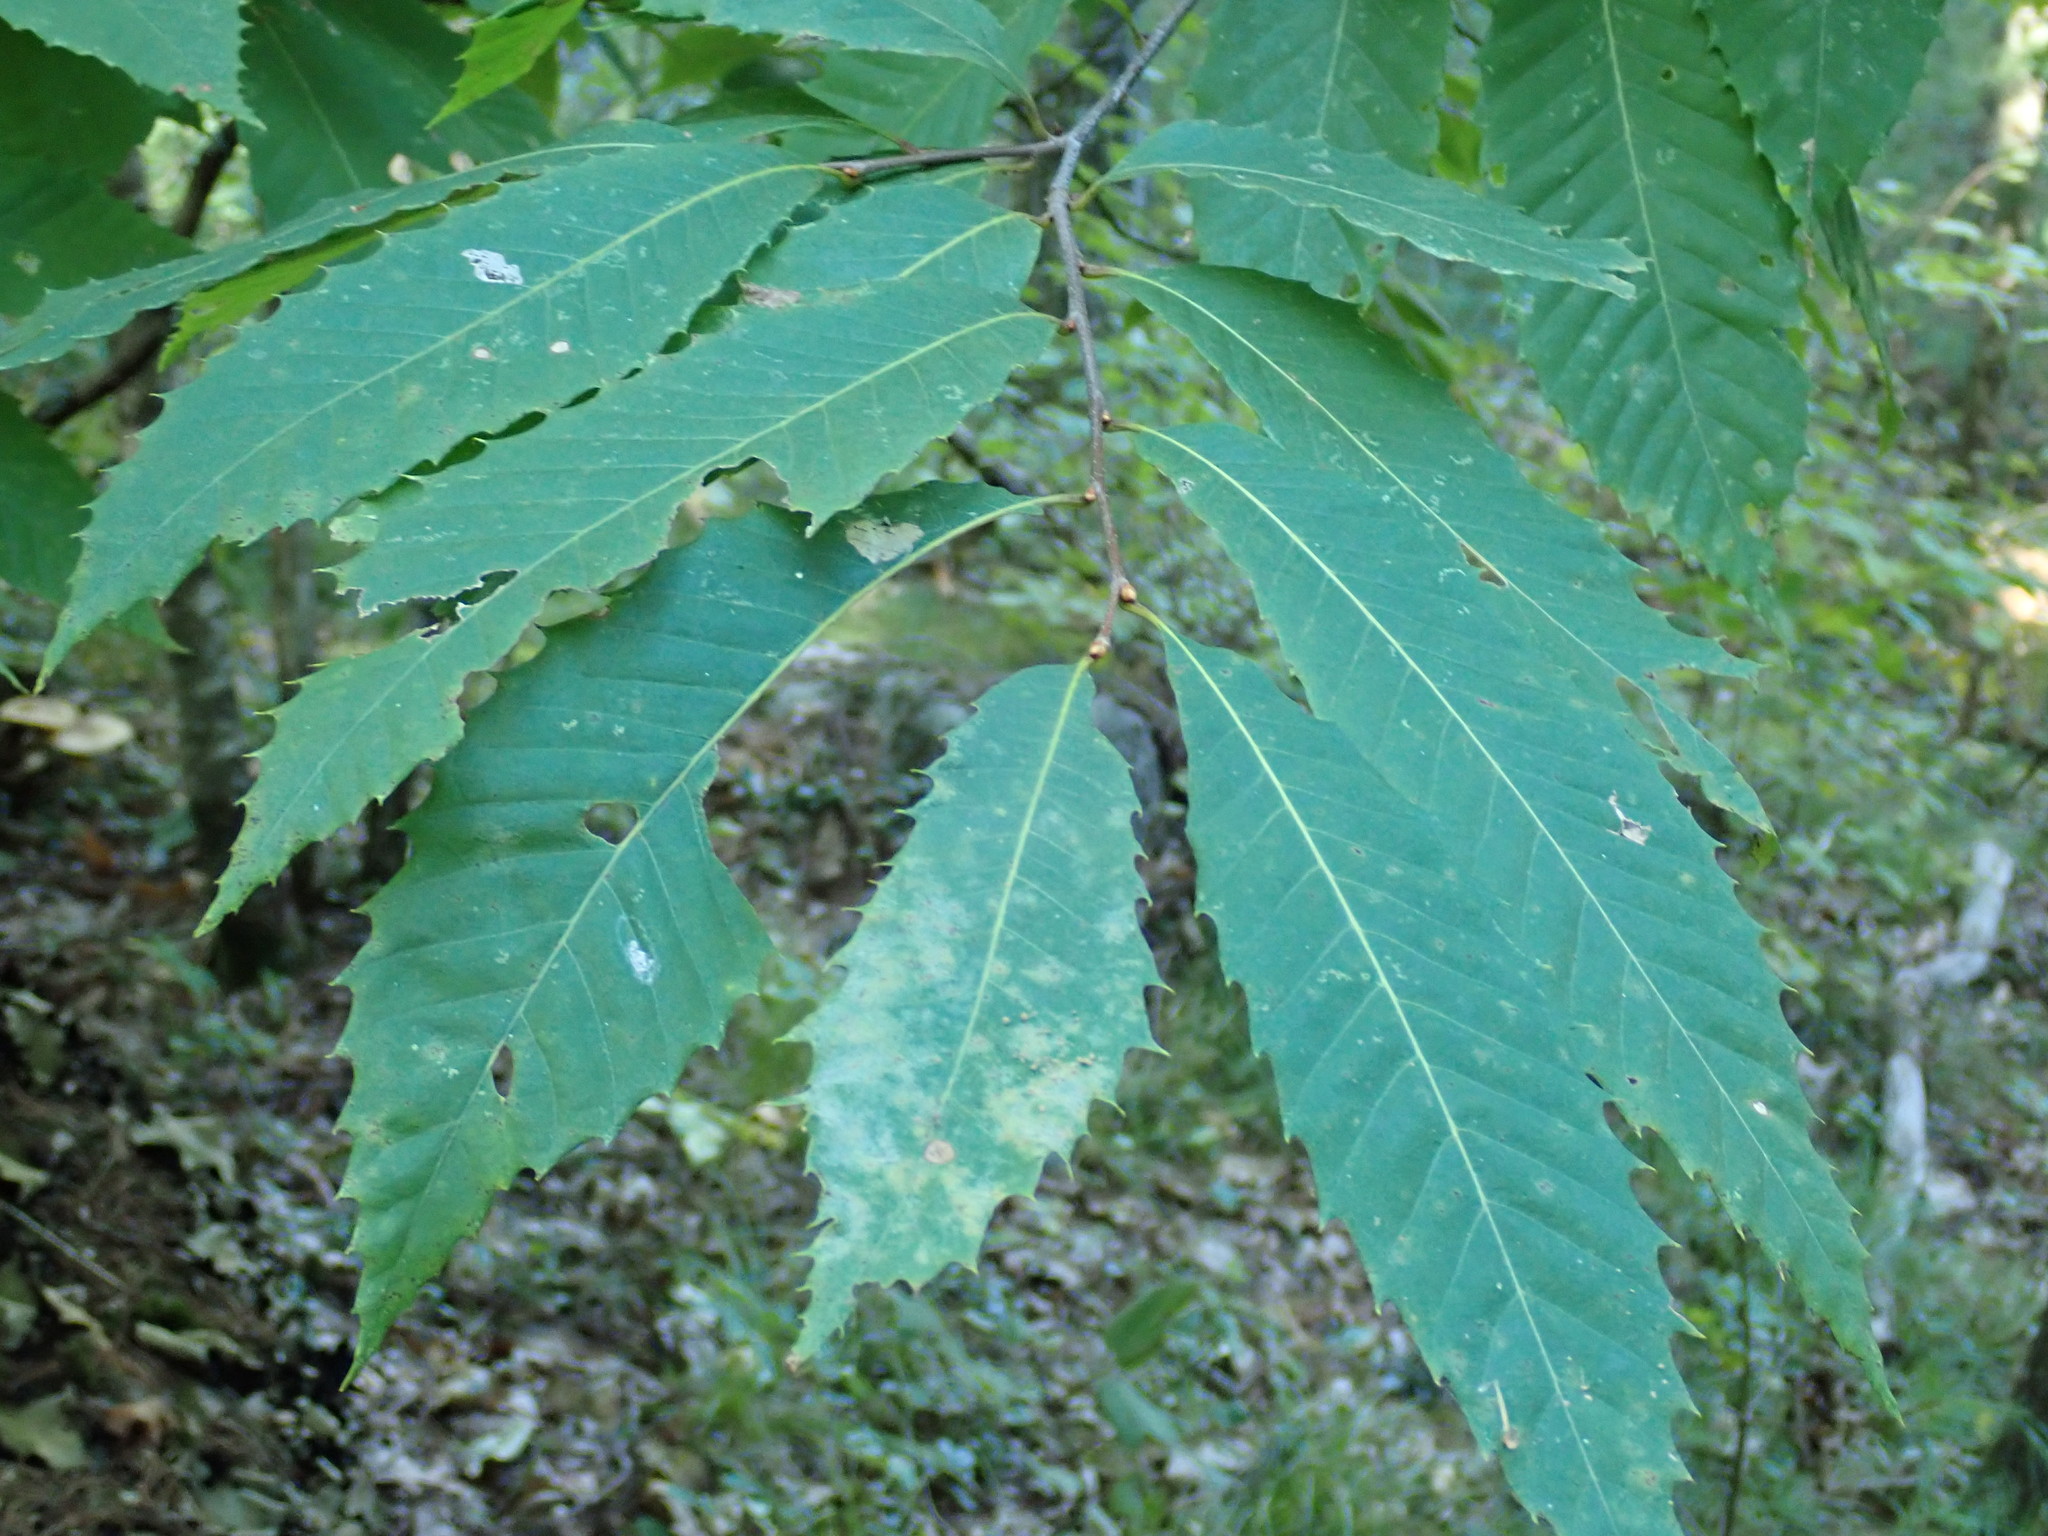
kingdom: Plantae
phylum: Tracheophyta
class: Magnoliopsida
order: Fagales
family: Fagaceae
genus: Castanea
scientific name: Castanea dentata
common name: American chestnut
